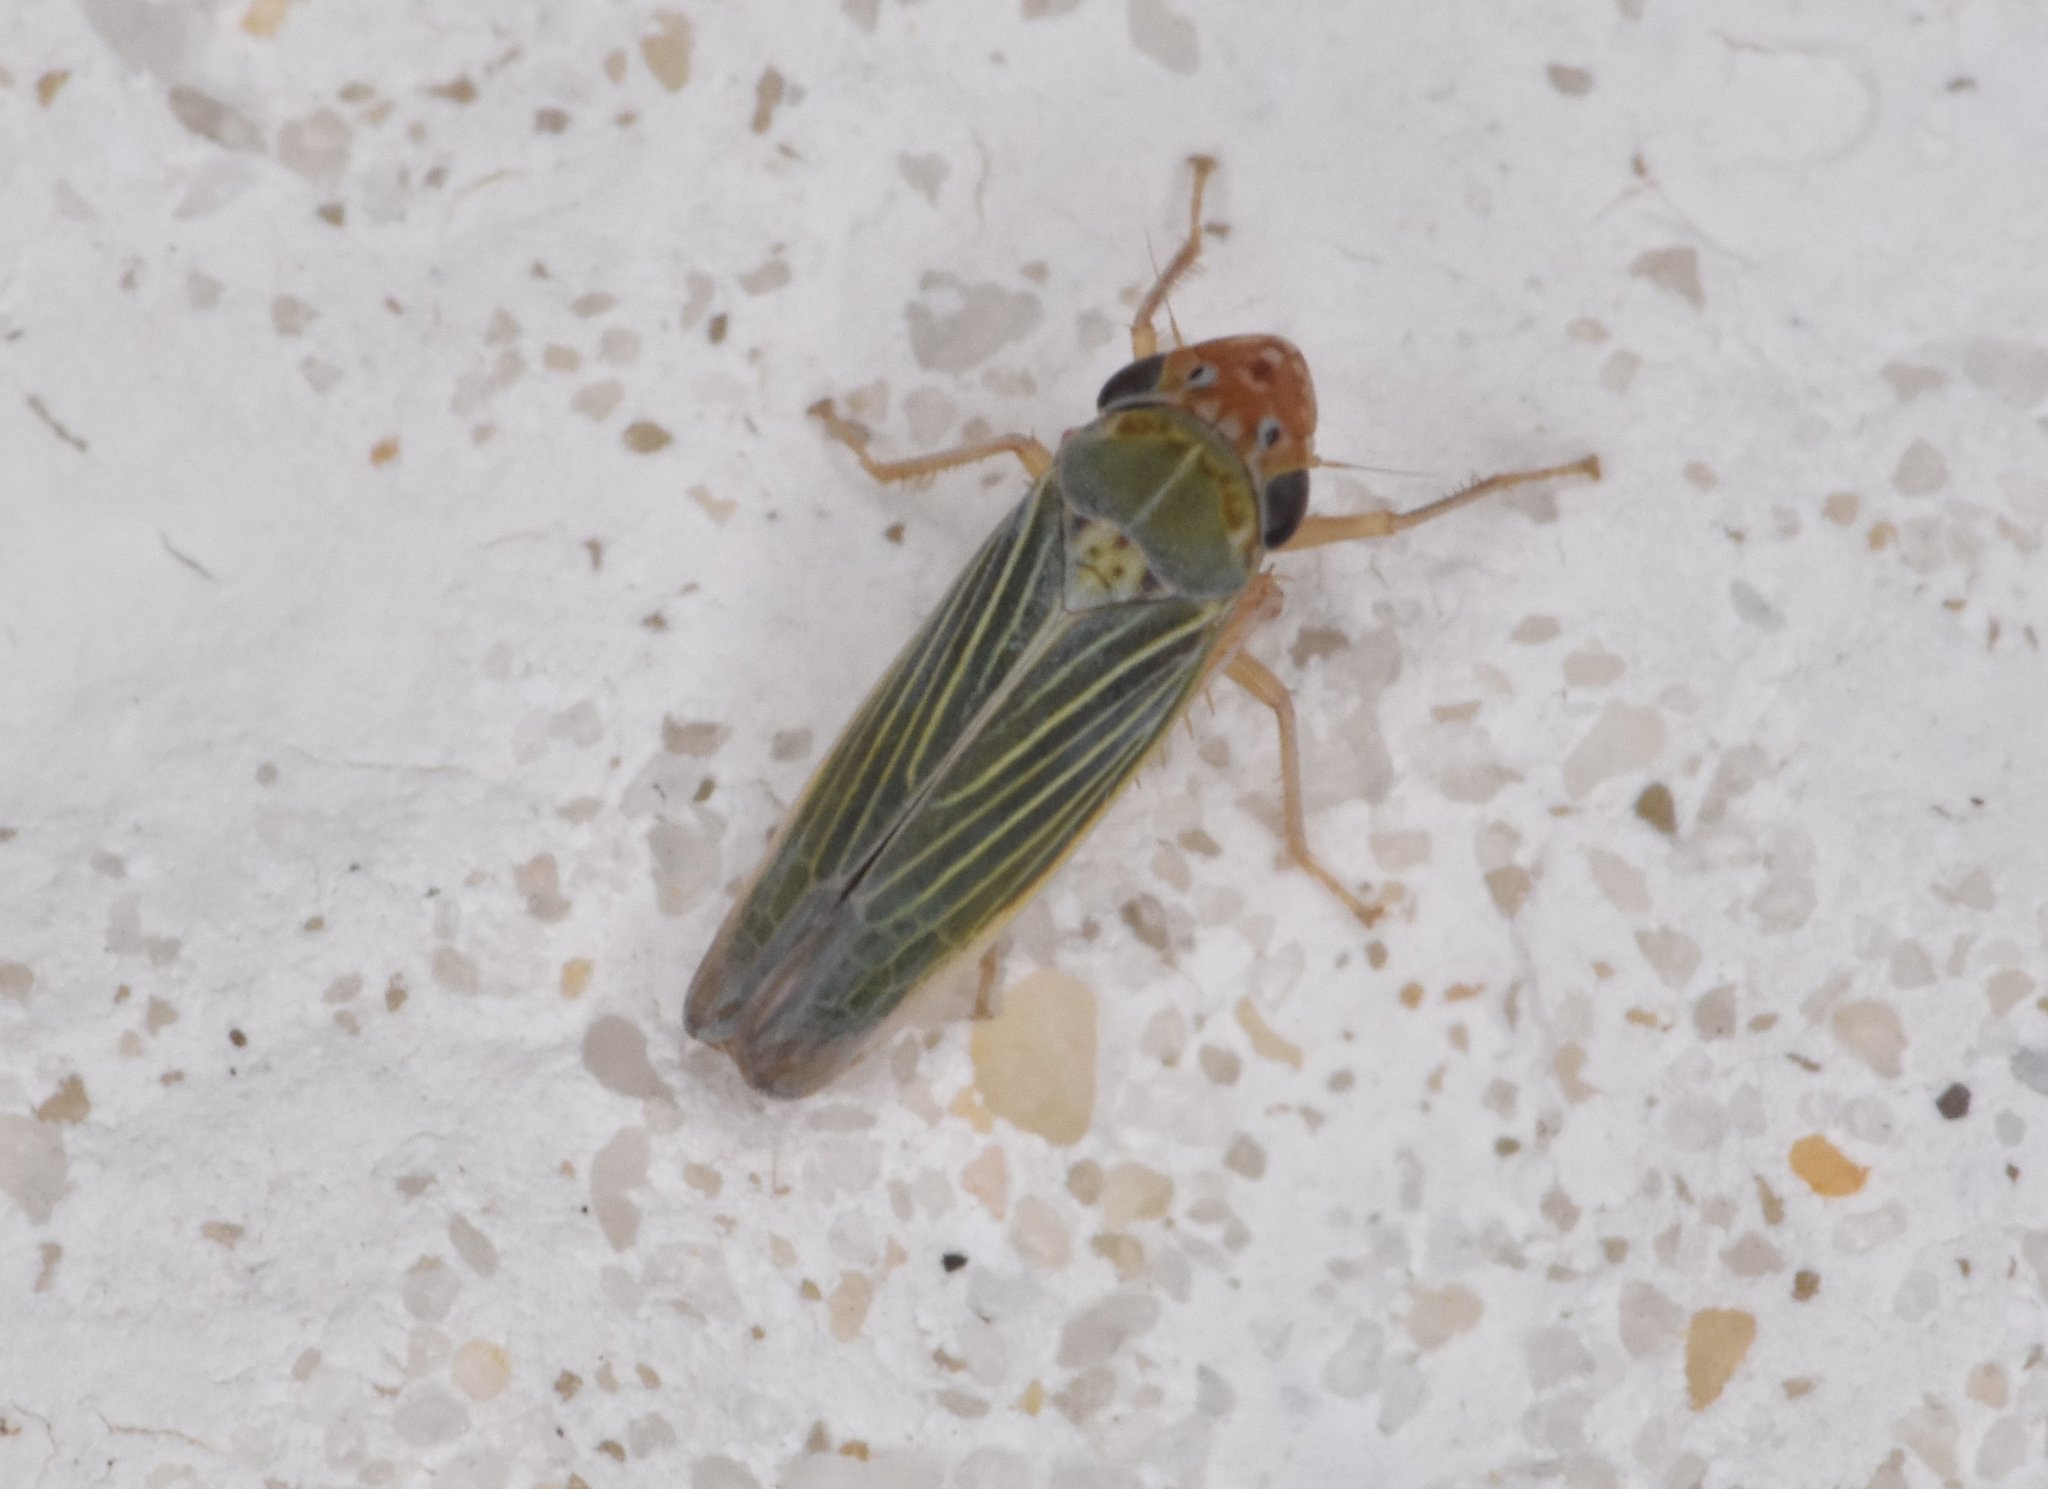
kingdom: Animalia
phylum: Arthropoda
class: Insecta
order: Hemiptera
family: Cicadellidae
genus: Xyphon
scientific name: Xyphon reticulatum
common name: Planthopper
